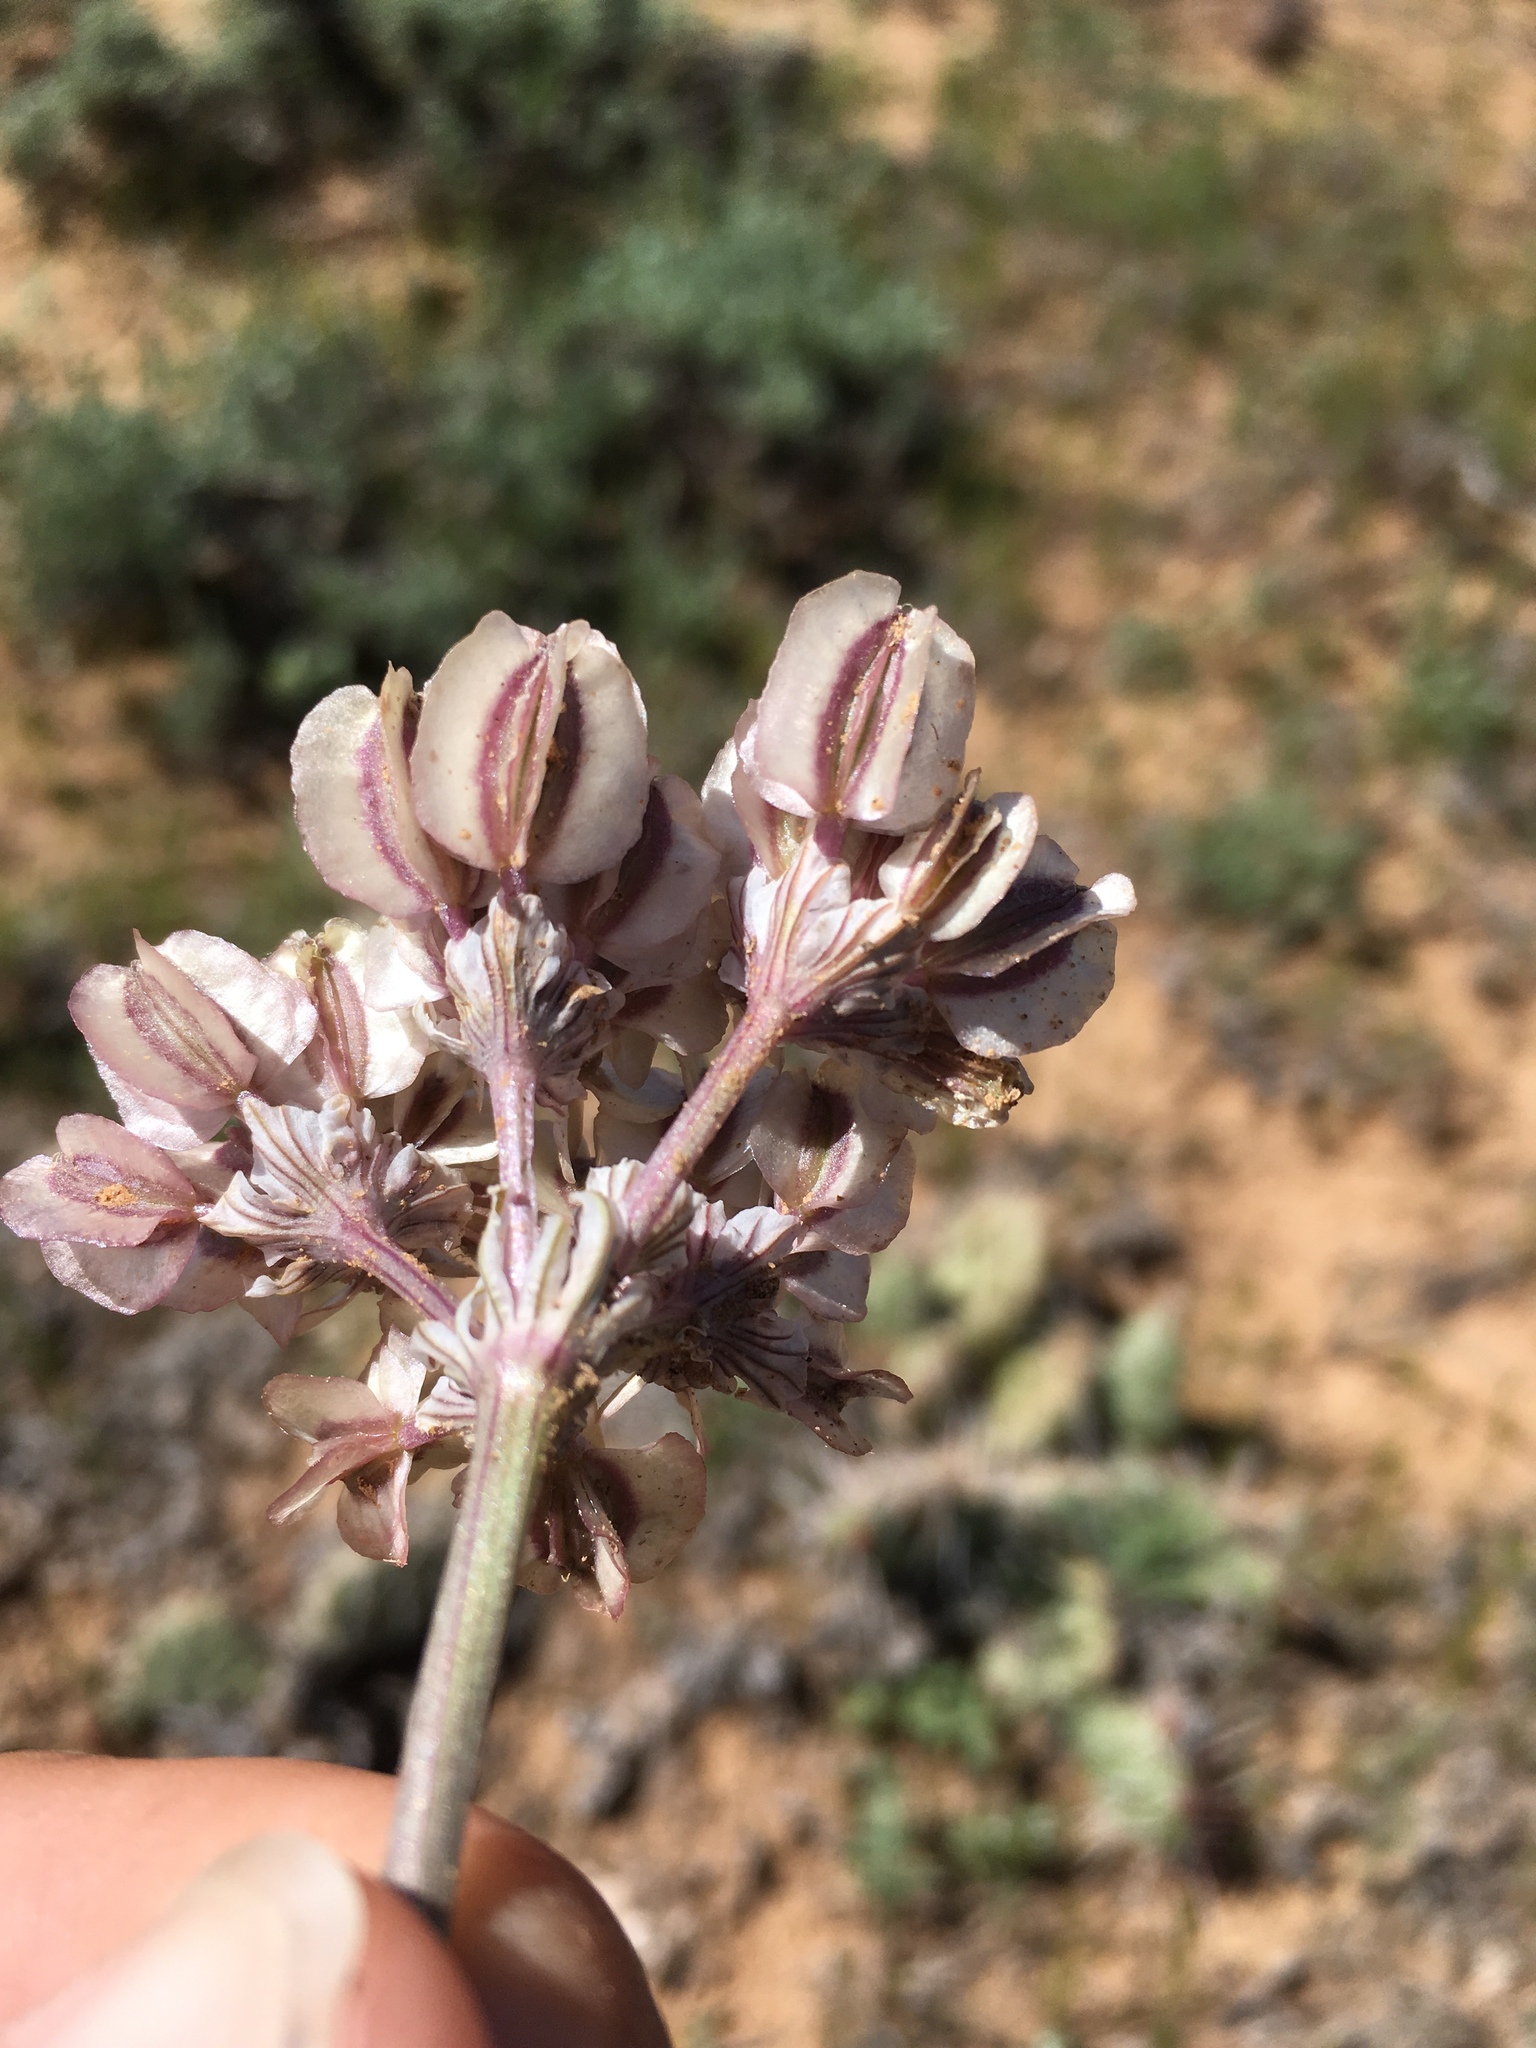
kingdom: Plantae
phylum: Tracheophyta
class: Magnoliopsida
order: Apiales
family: Apiaceae
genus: Vesper
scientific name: Vesper constancei
